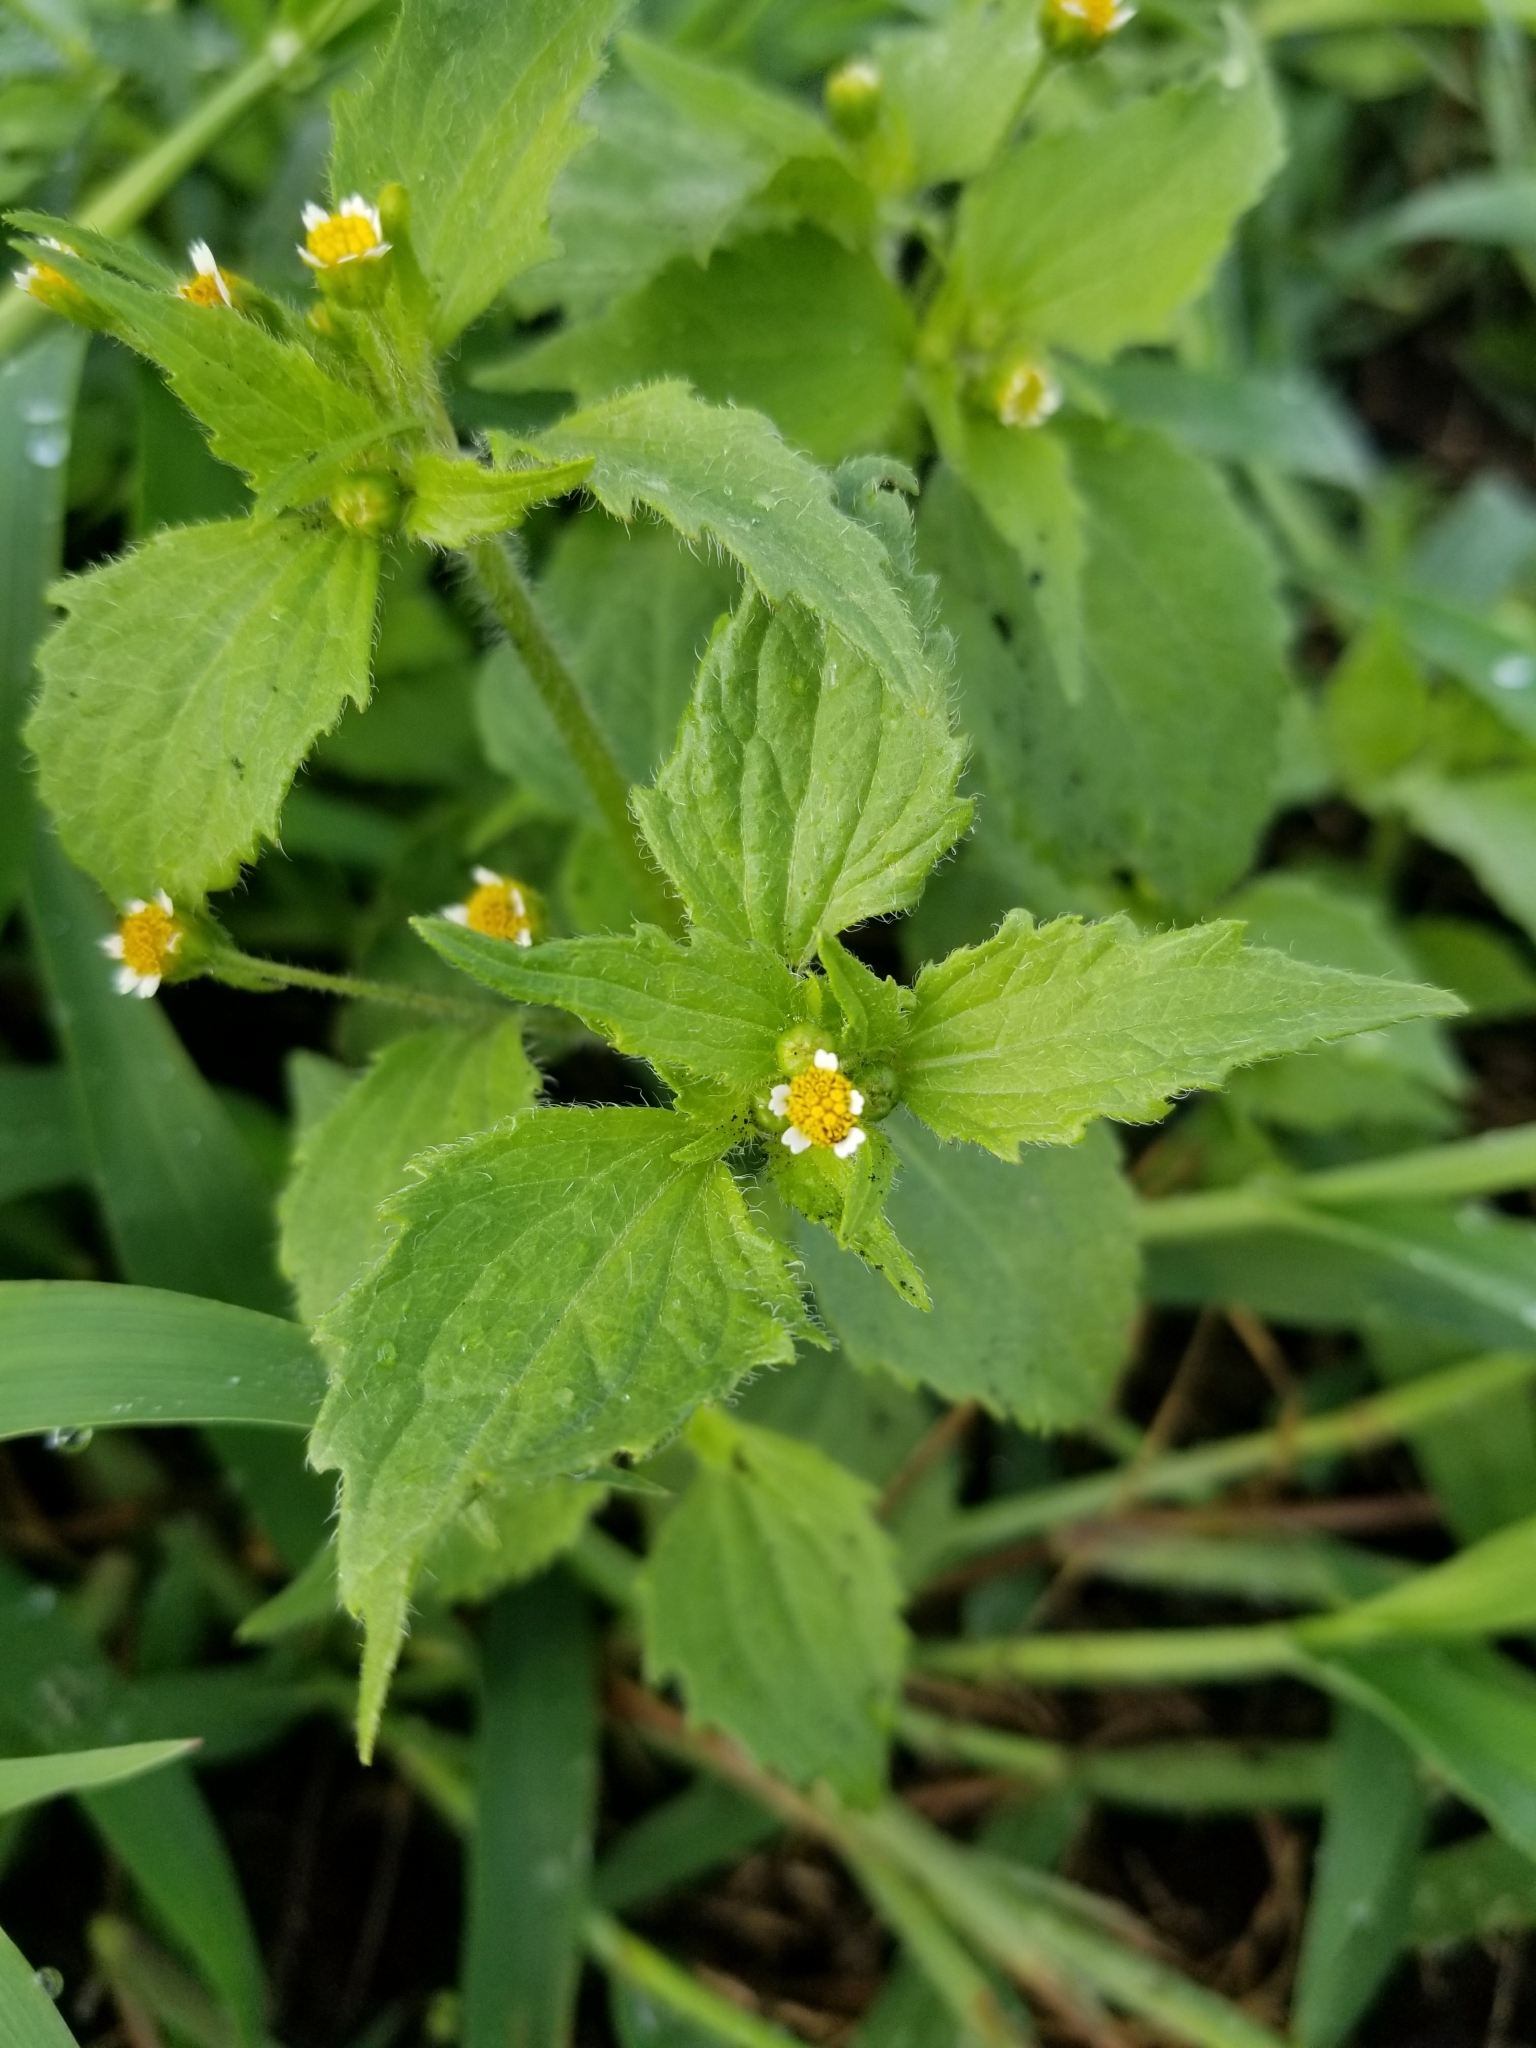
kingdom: Plantae
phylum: Tracheophyta
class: Magnoliopsida
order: Asterales
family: Asteraceae
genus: Galinsoga
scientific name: Galinsoga quadriradiata
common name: Shaggy soldier
